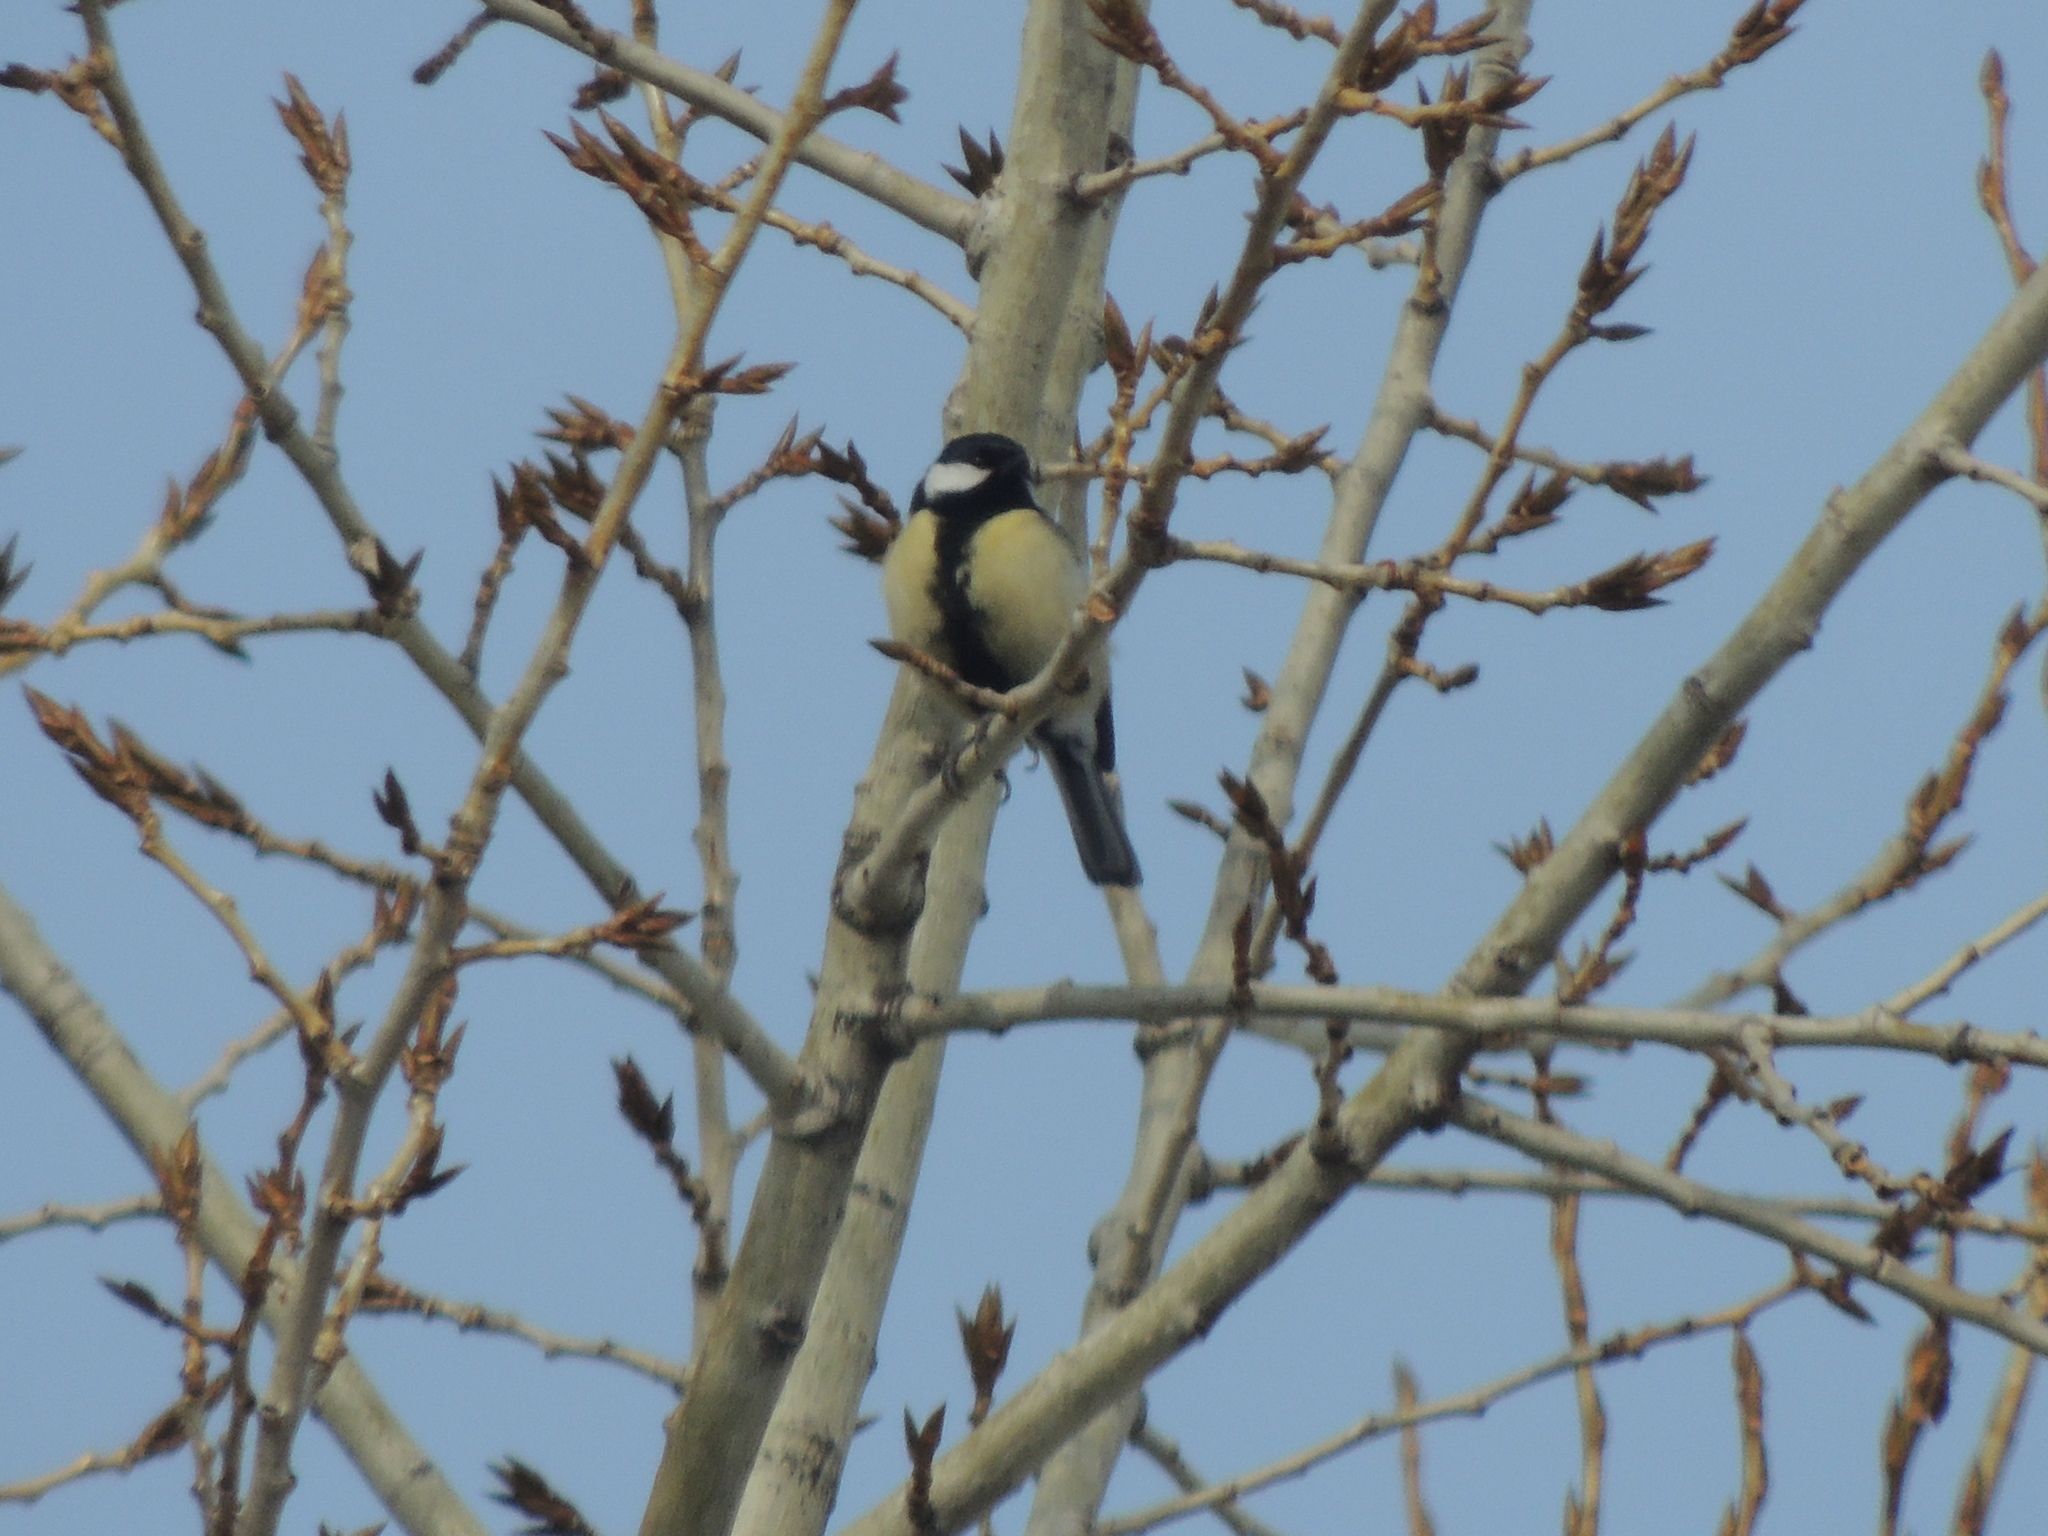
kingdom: Animalia
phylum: Chordata
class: Aves
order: Passeriformes
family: Paridae
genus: Parus
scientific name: Parus major
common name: Great tit
